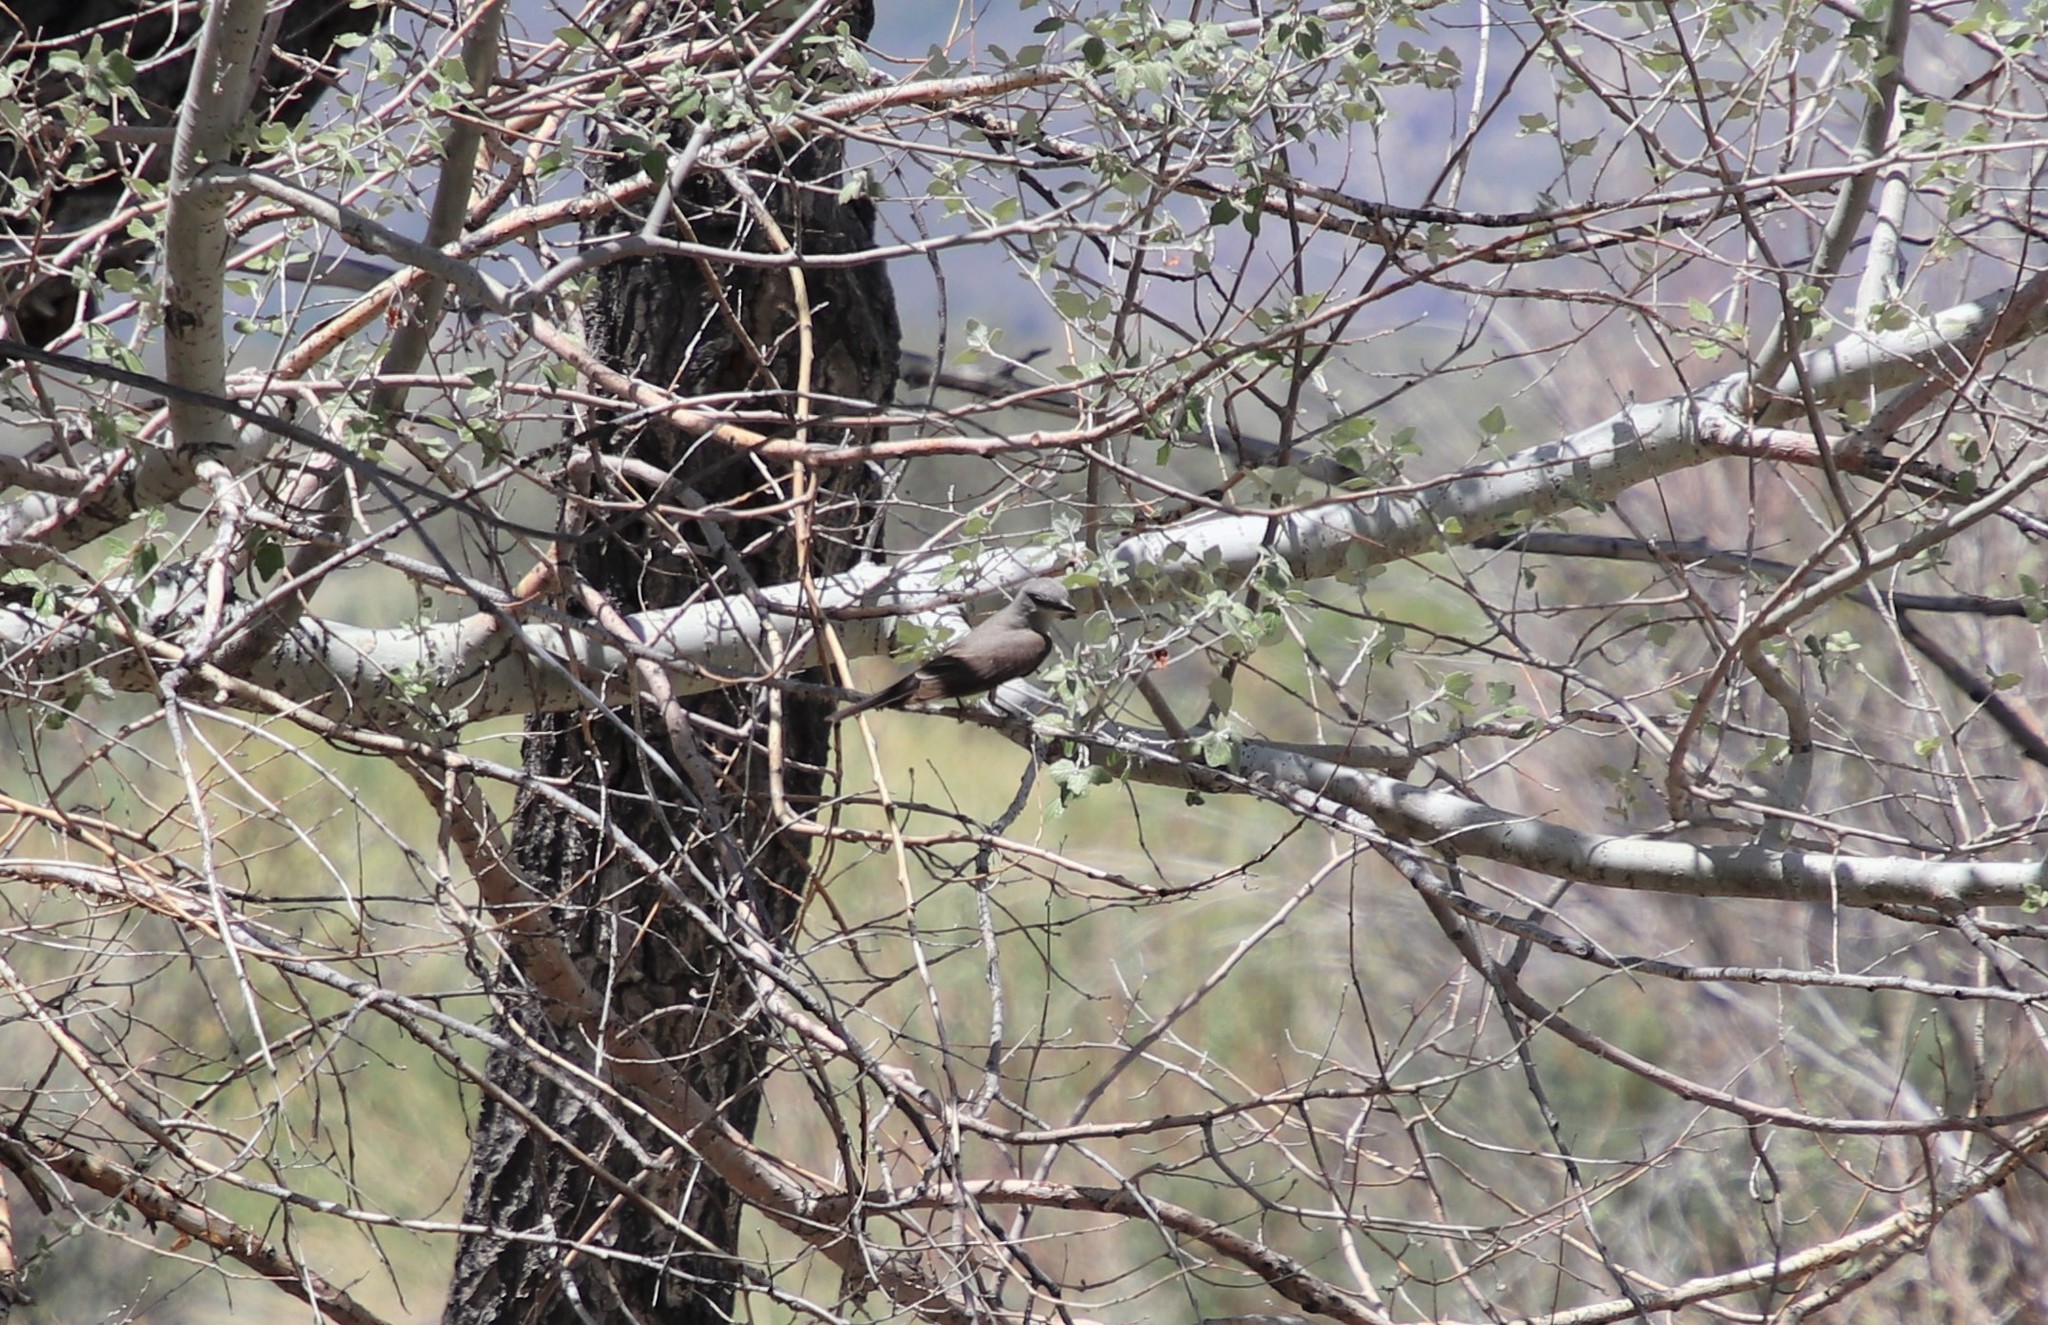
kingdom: Animalia
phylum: Chordata
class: Aves
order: Passeriformes
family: Tyrannidae
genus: Tyrannus
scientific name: Tyrannus verticalis
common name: Western kingbird
